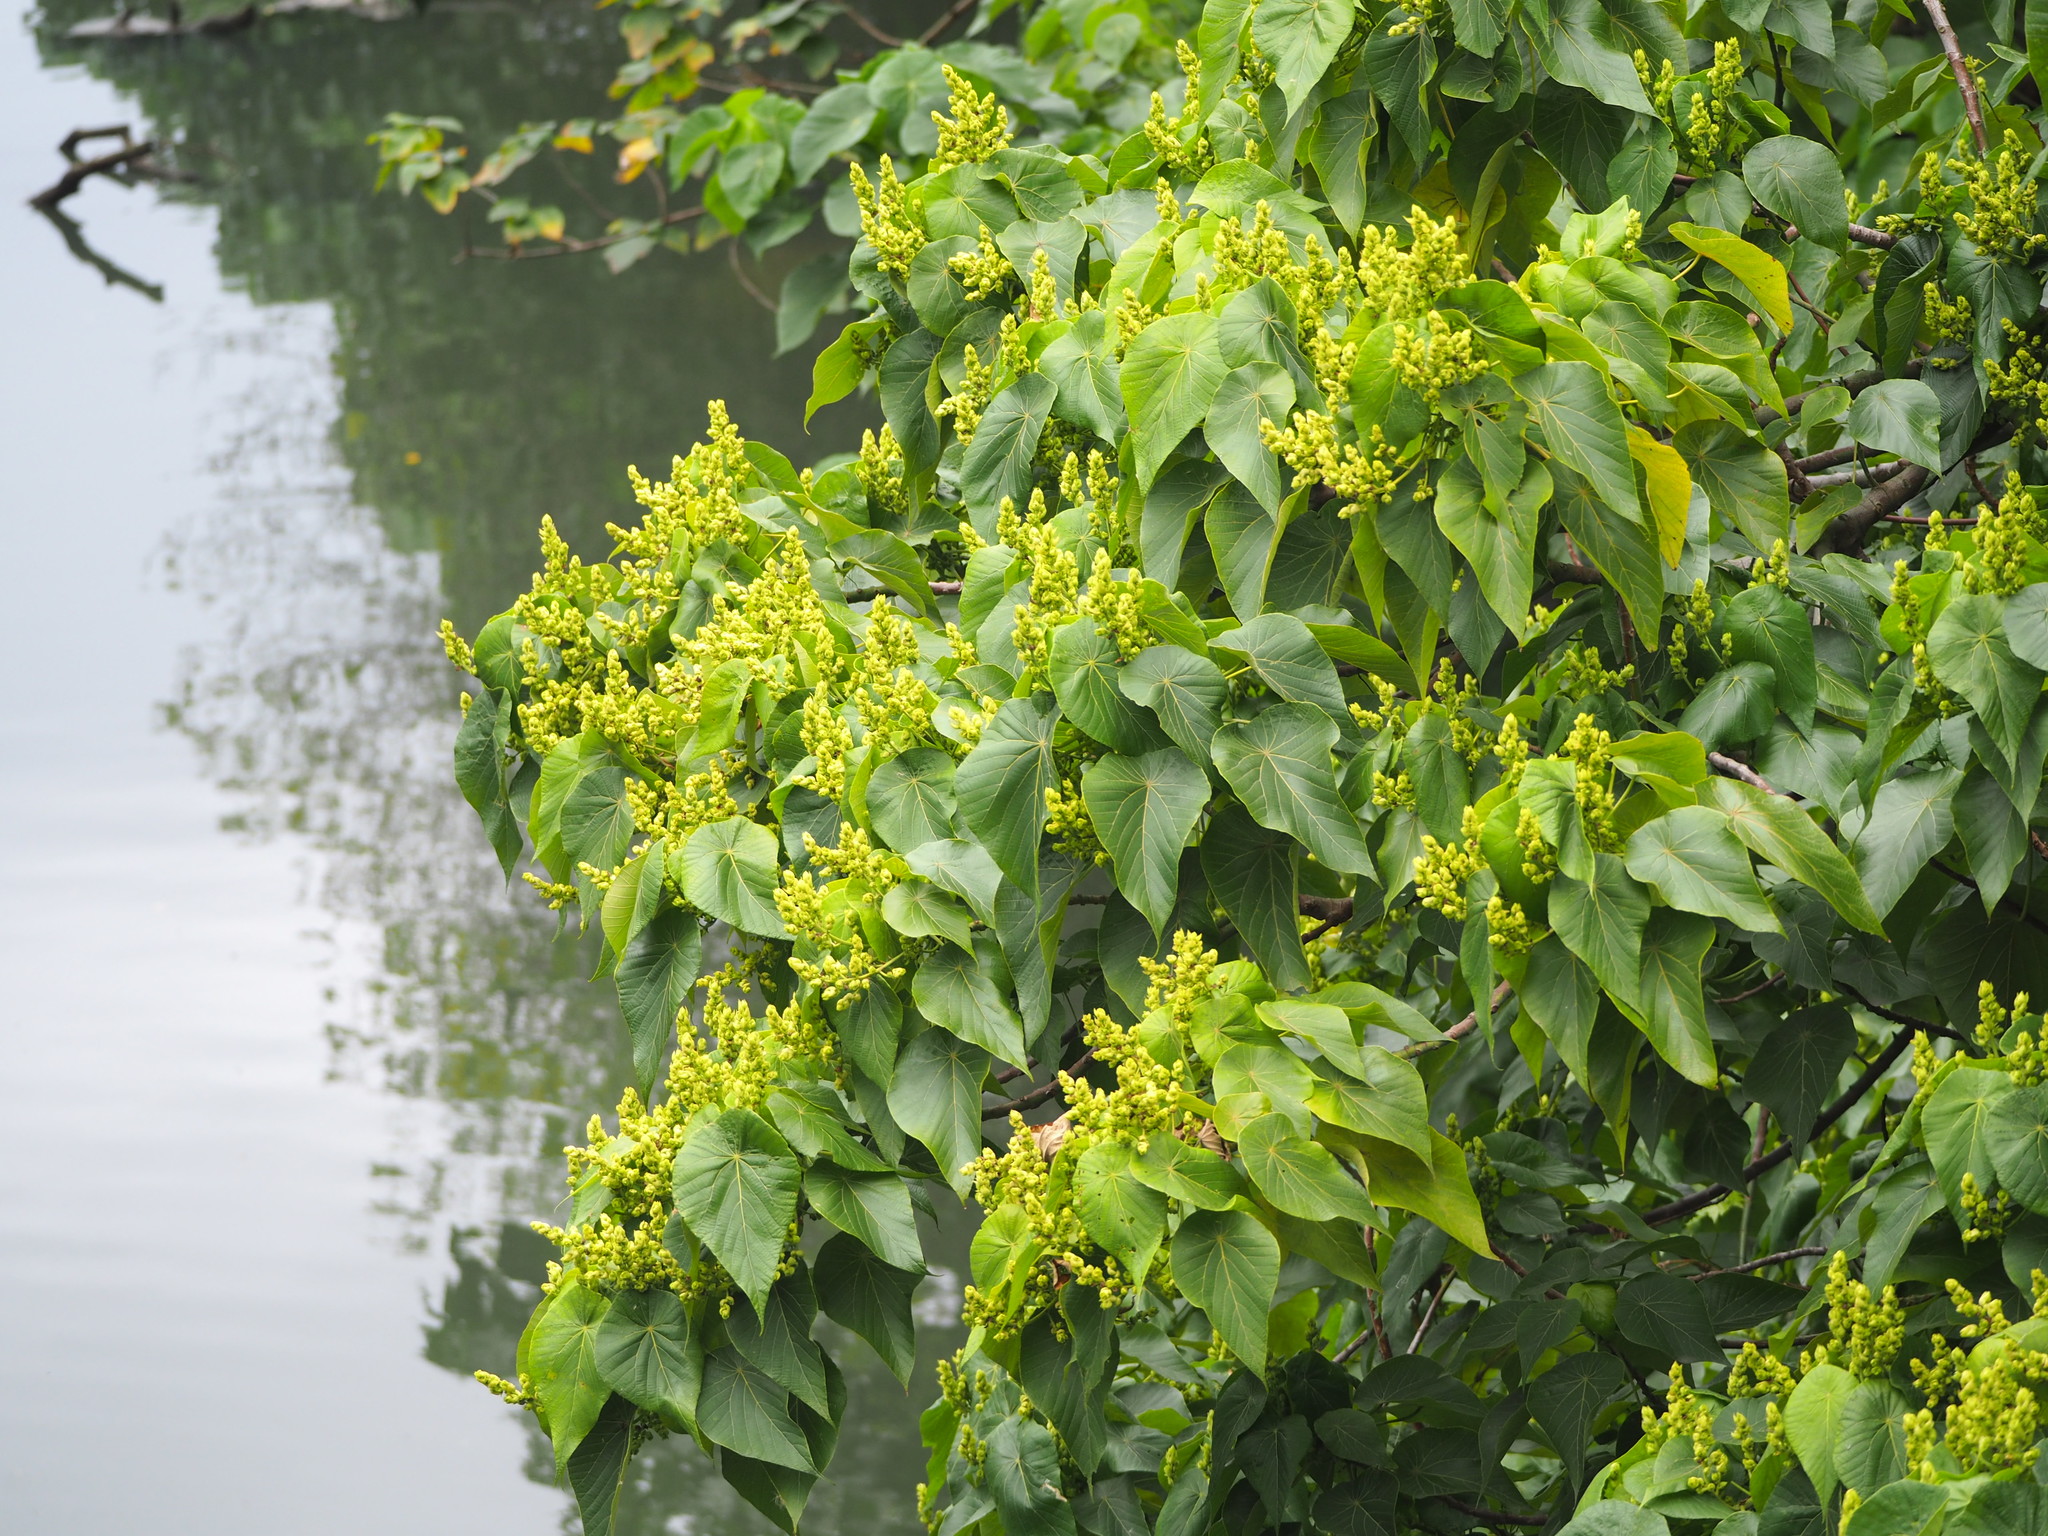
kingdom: Plantae
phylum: Tracheophyta
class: Magnoliopsida
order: Malpighiales
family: Euphorbiaceae
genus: Macaranga
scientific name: Macaranga tanarius
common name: Parasol leaf tree
